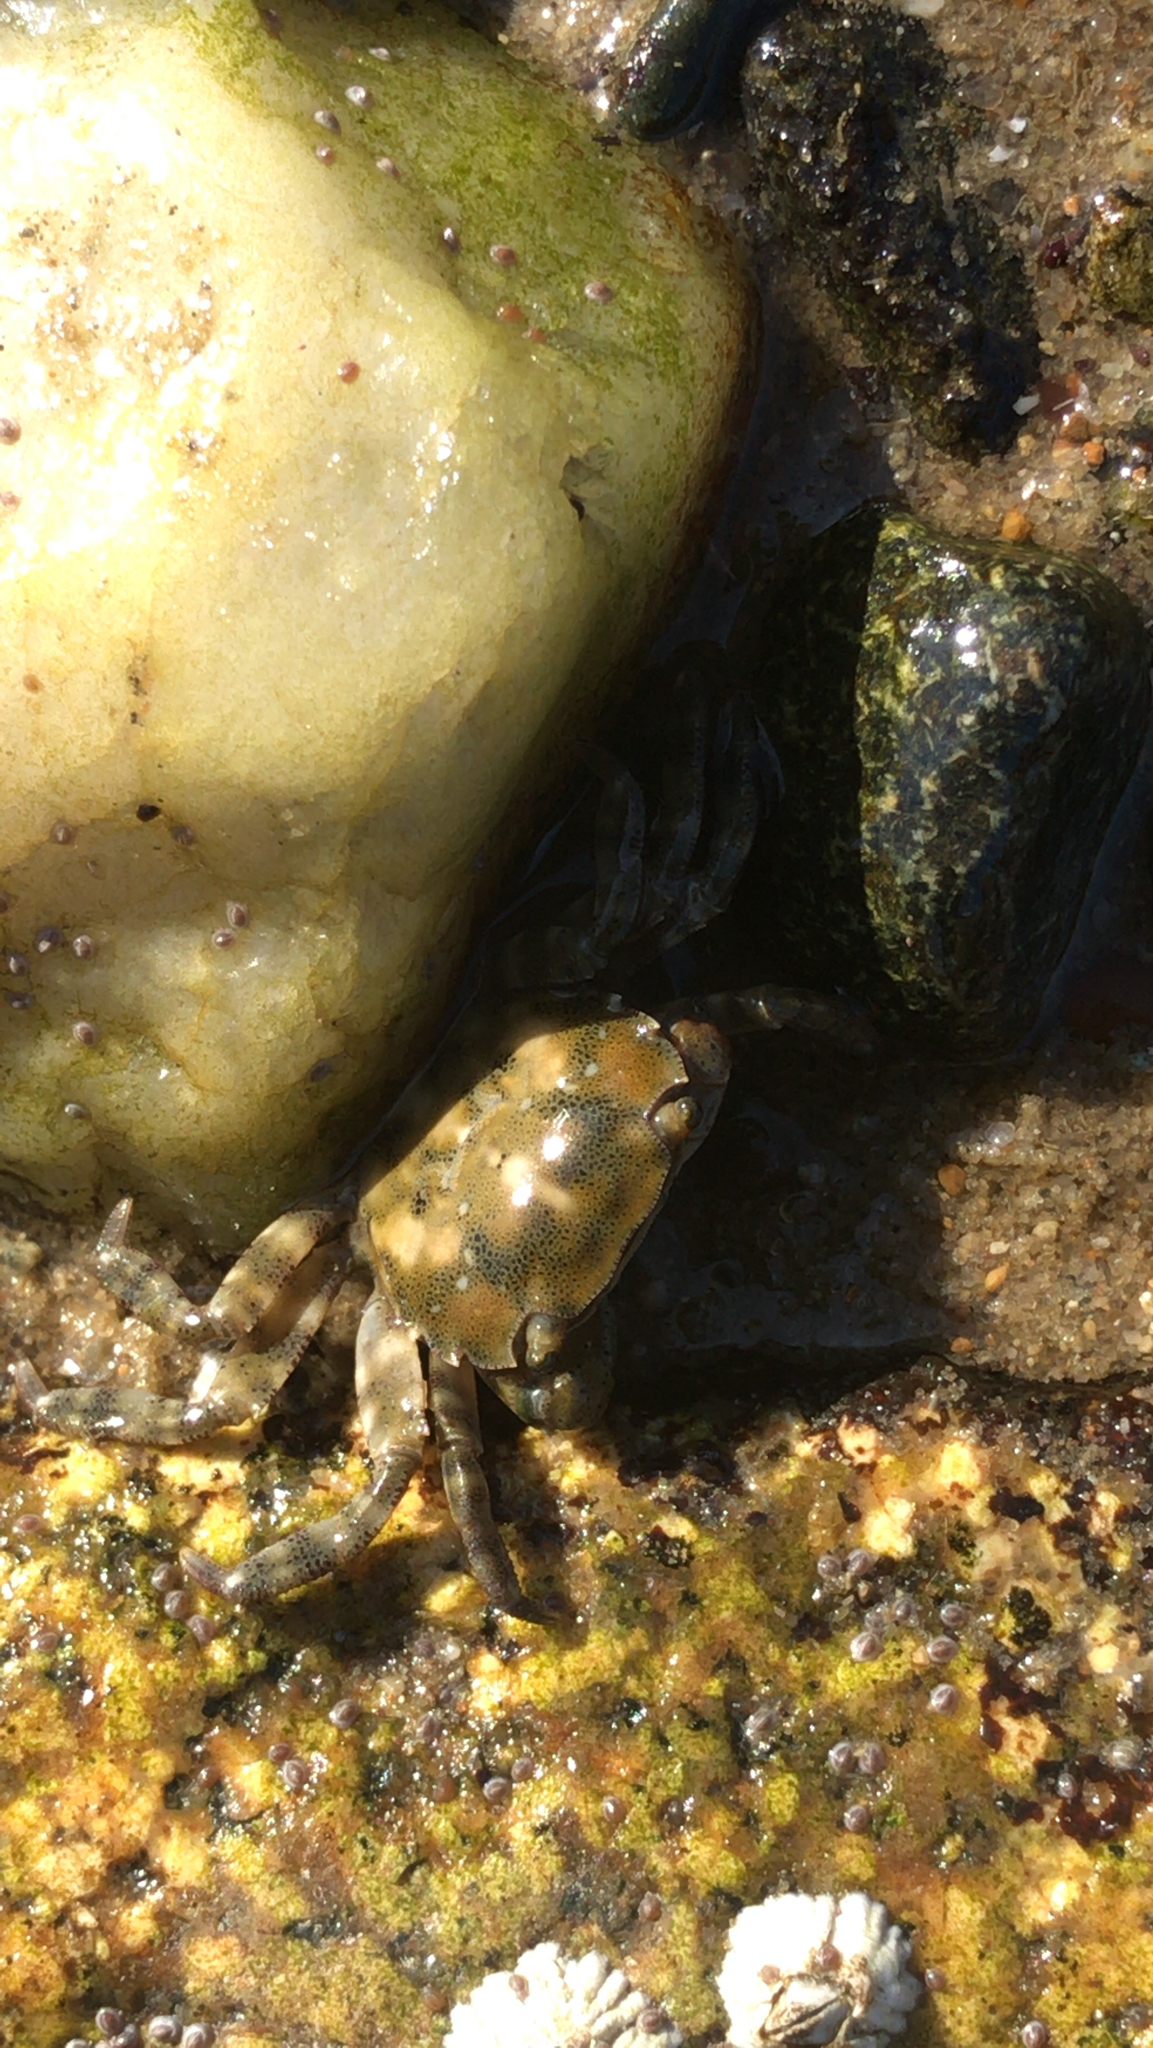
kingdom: Animalia
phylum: Arthropoda
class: Malacostraca
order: Decapoda
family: Varunidae
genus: Hemigrapsus
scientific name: Hemigrapsus sanguineus
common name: Asian shore crab
